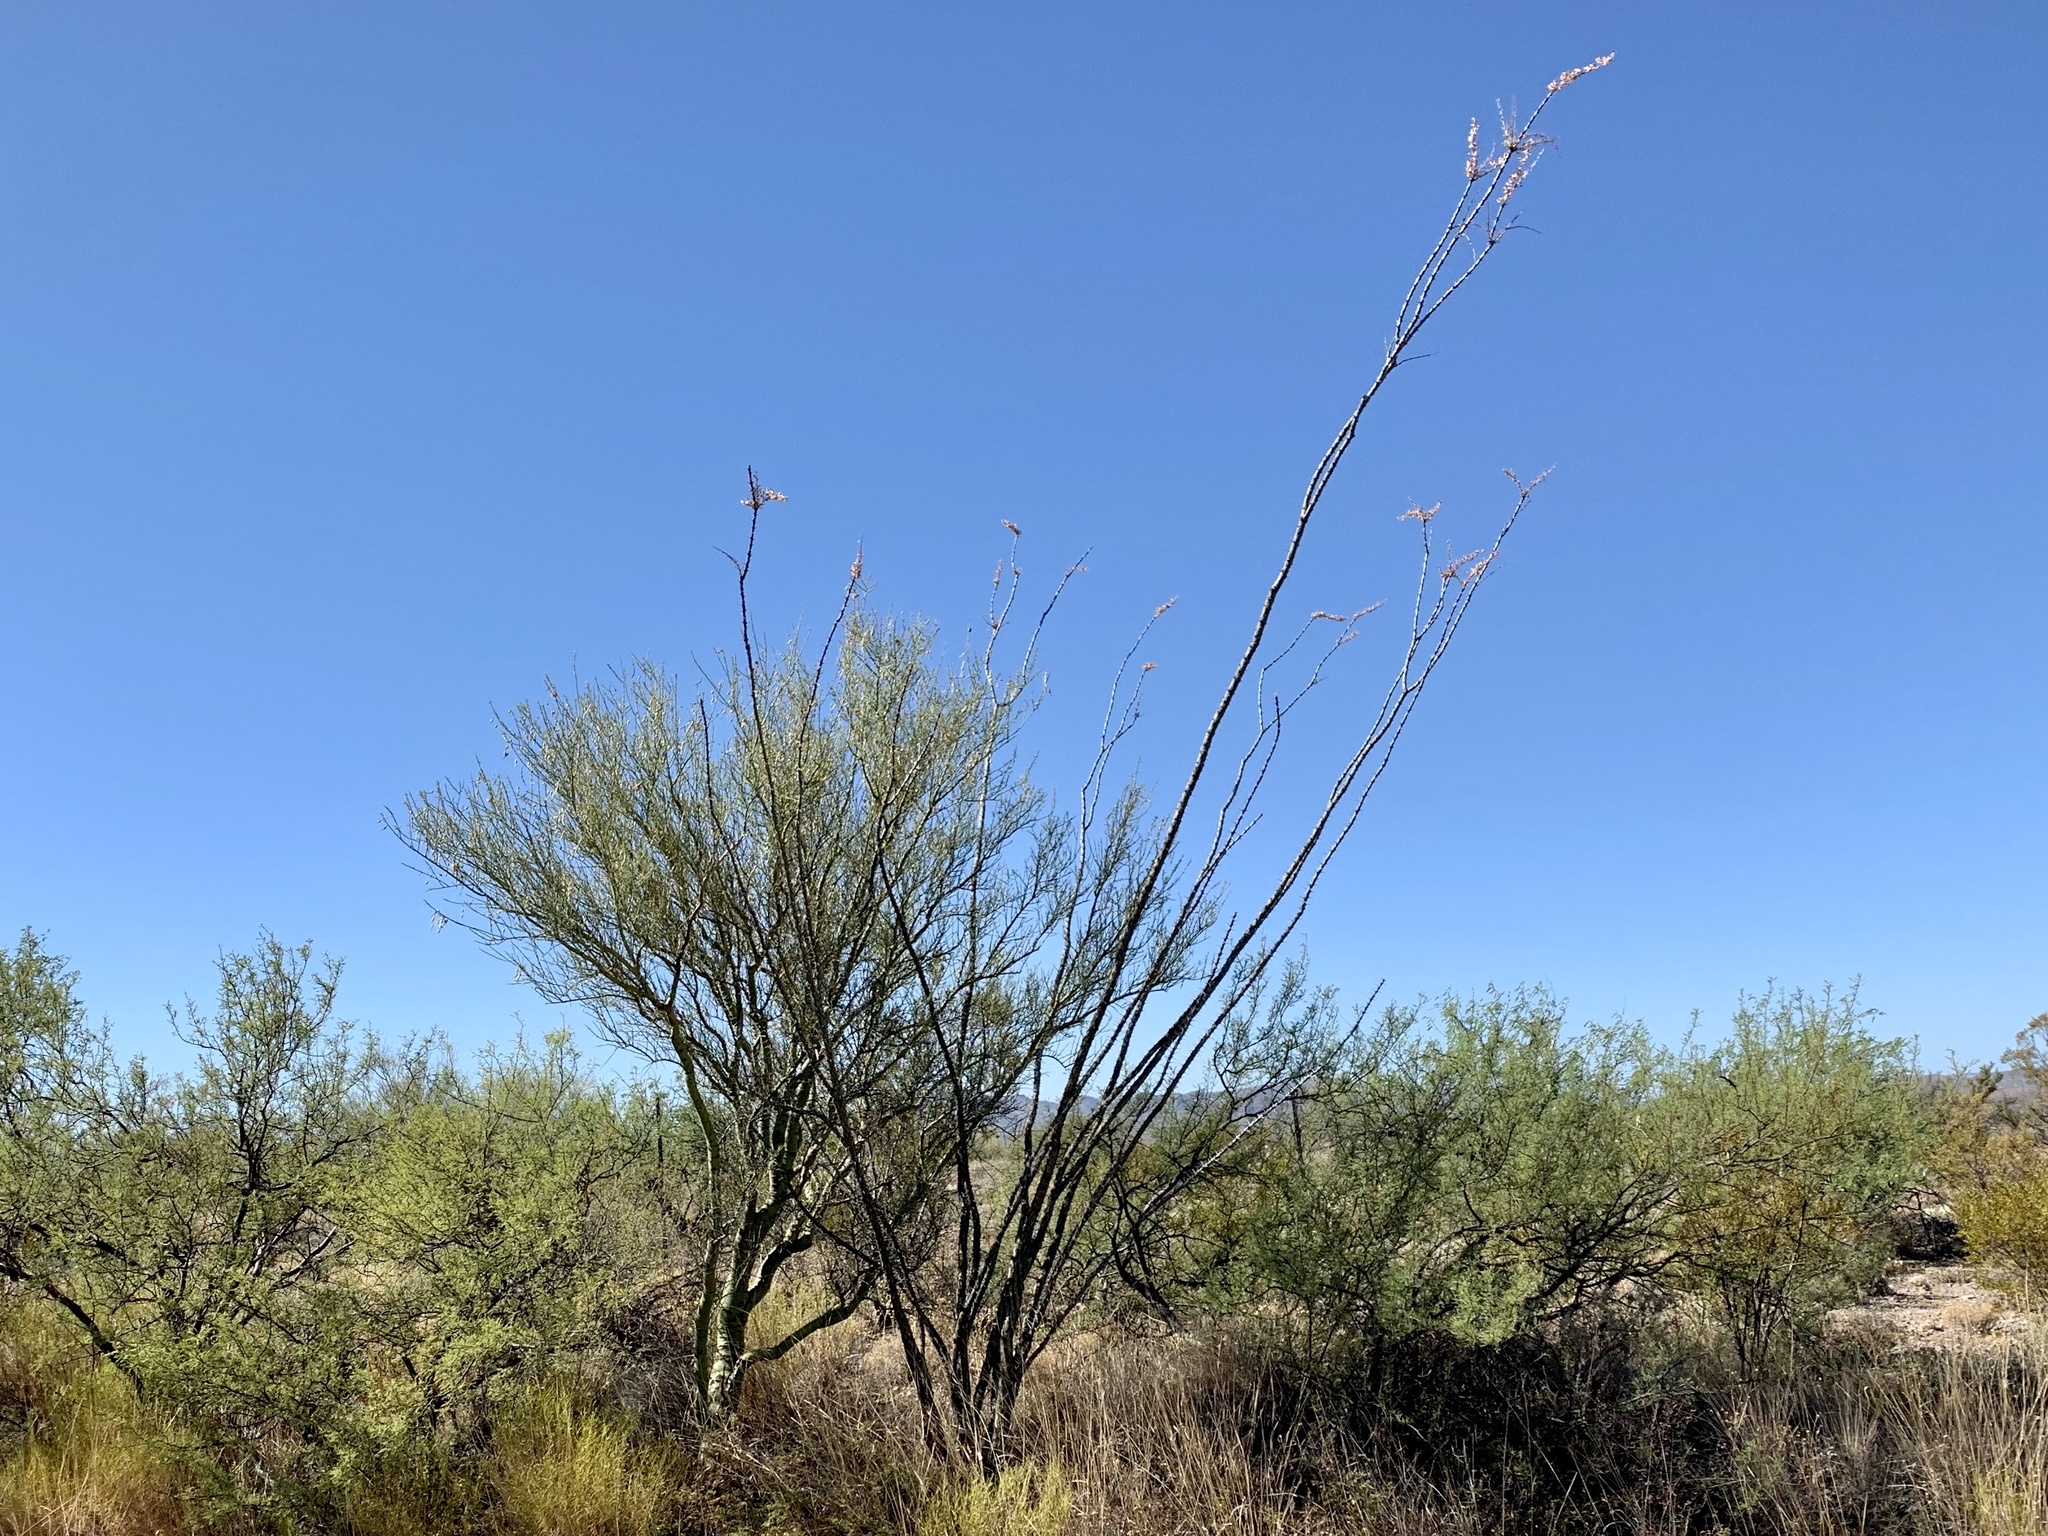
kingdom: Plantae
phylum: Tracheophyta
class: Magnoliopsida
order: Ericales
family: Fouquieriaceae
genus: Fouquieria
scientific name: Fouquieria splendens
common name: Vine-cactus
